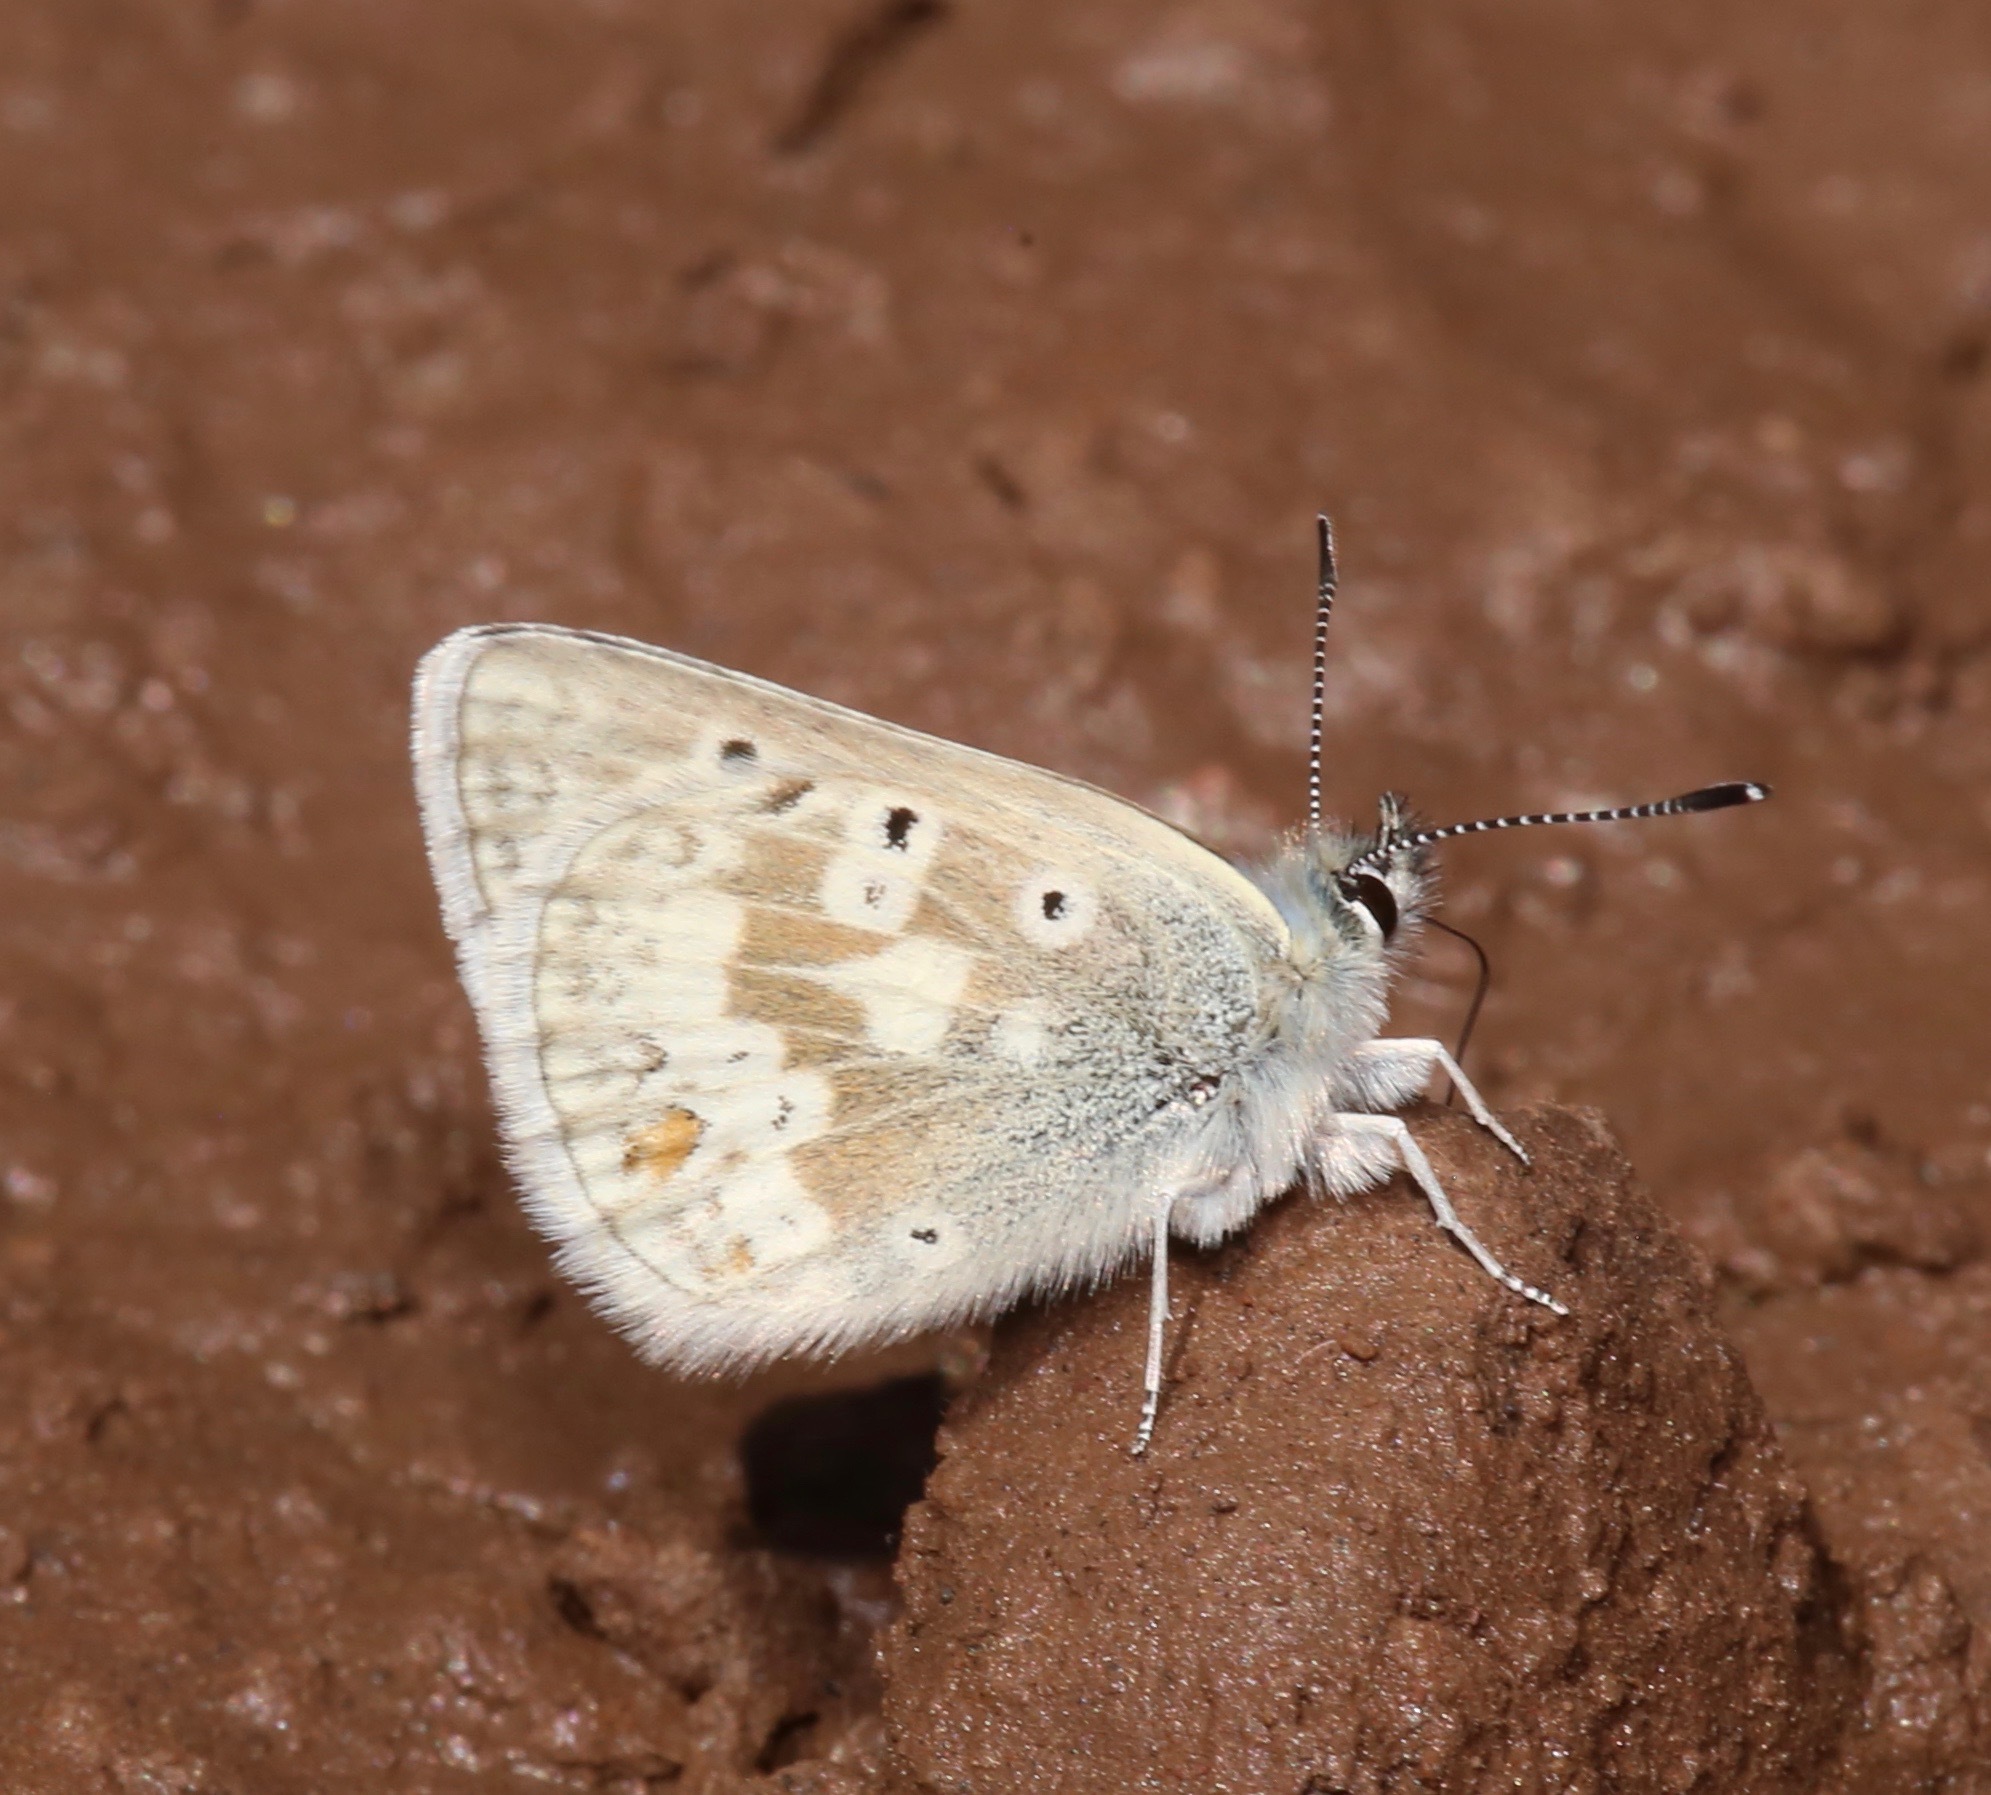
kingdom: Animalia
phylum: Arthropoda
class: Insecta
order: Lepidoptera
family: Lycaenidae
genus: Agriades
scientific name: Agriades glandon
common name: Glandon blue
